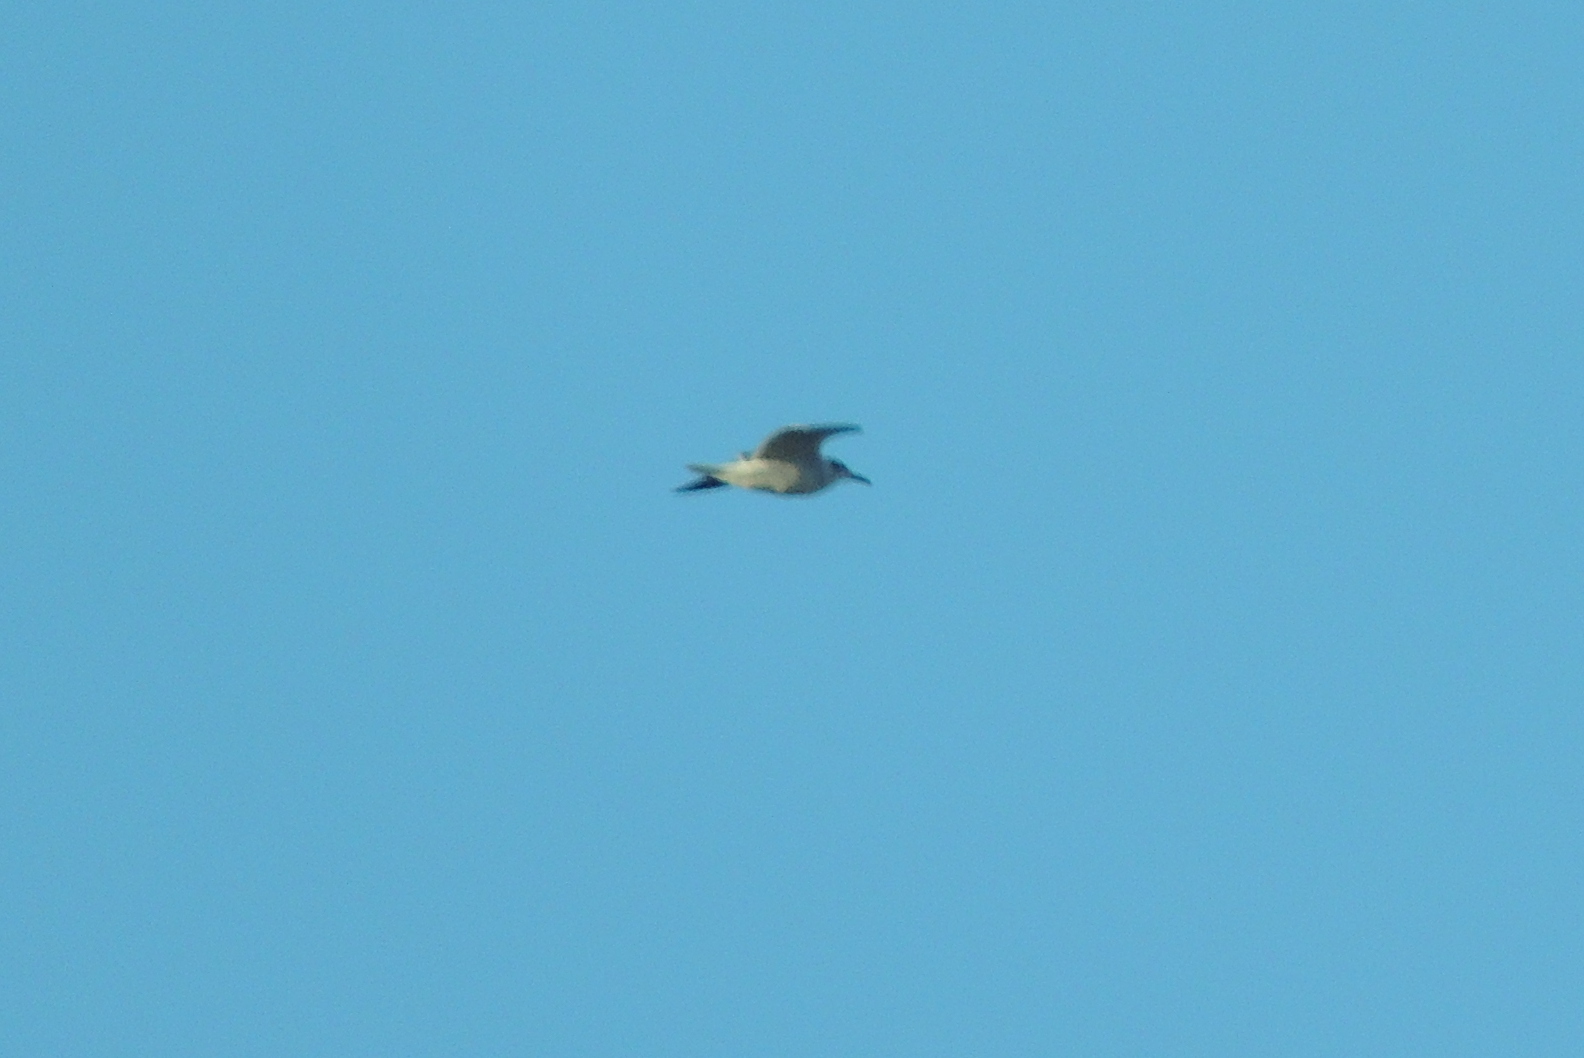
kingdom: Animalia
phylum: Chordata
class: Aves
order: Charadriiformes
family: Laridae
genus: Leucophaeus
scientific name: Leucophaeus atricilla
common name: Laughing gull
